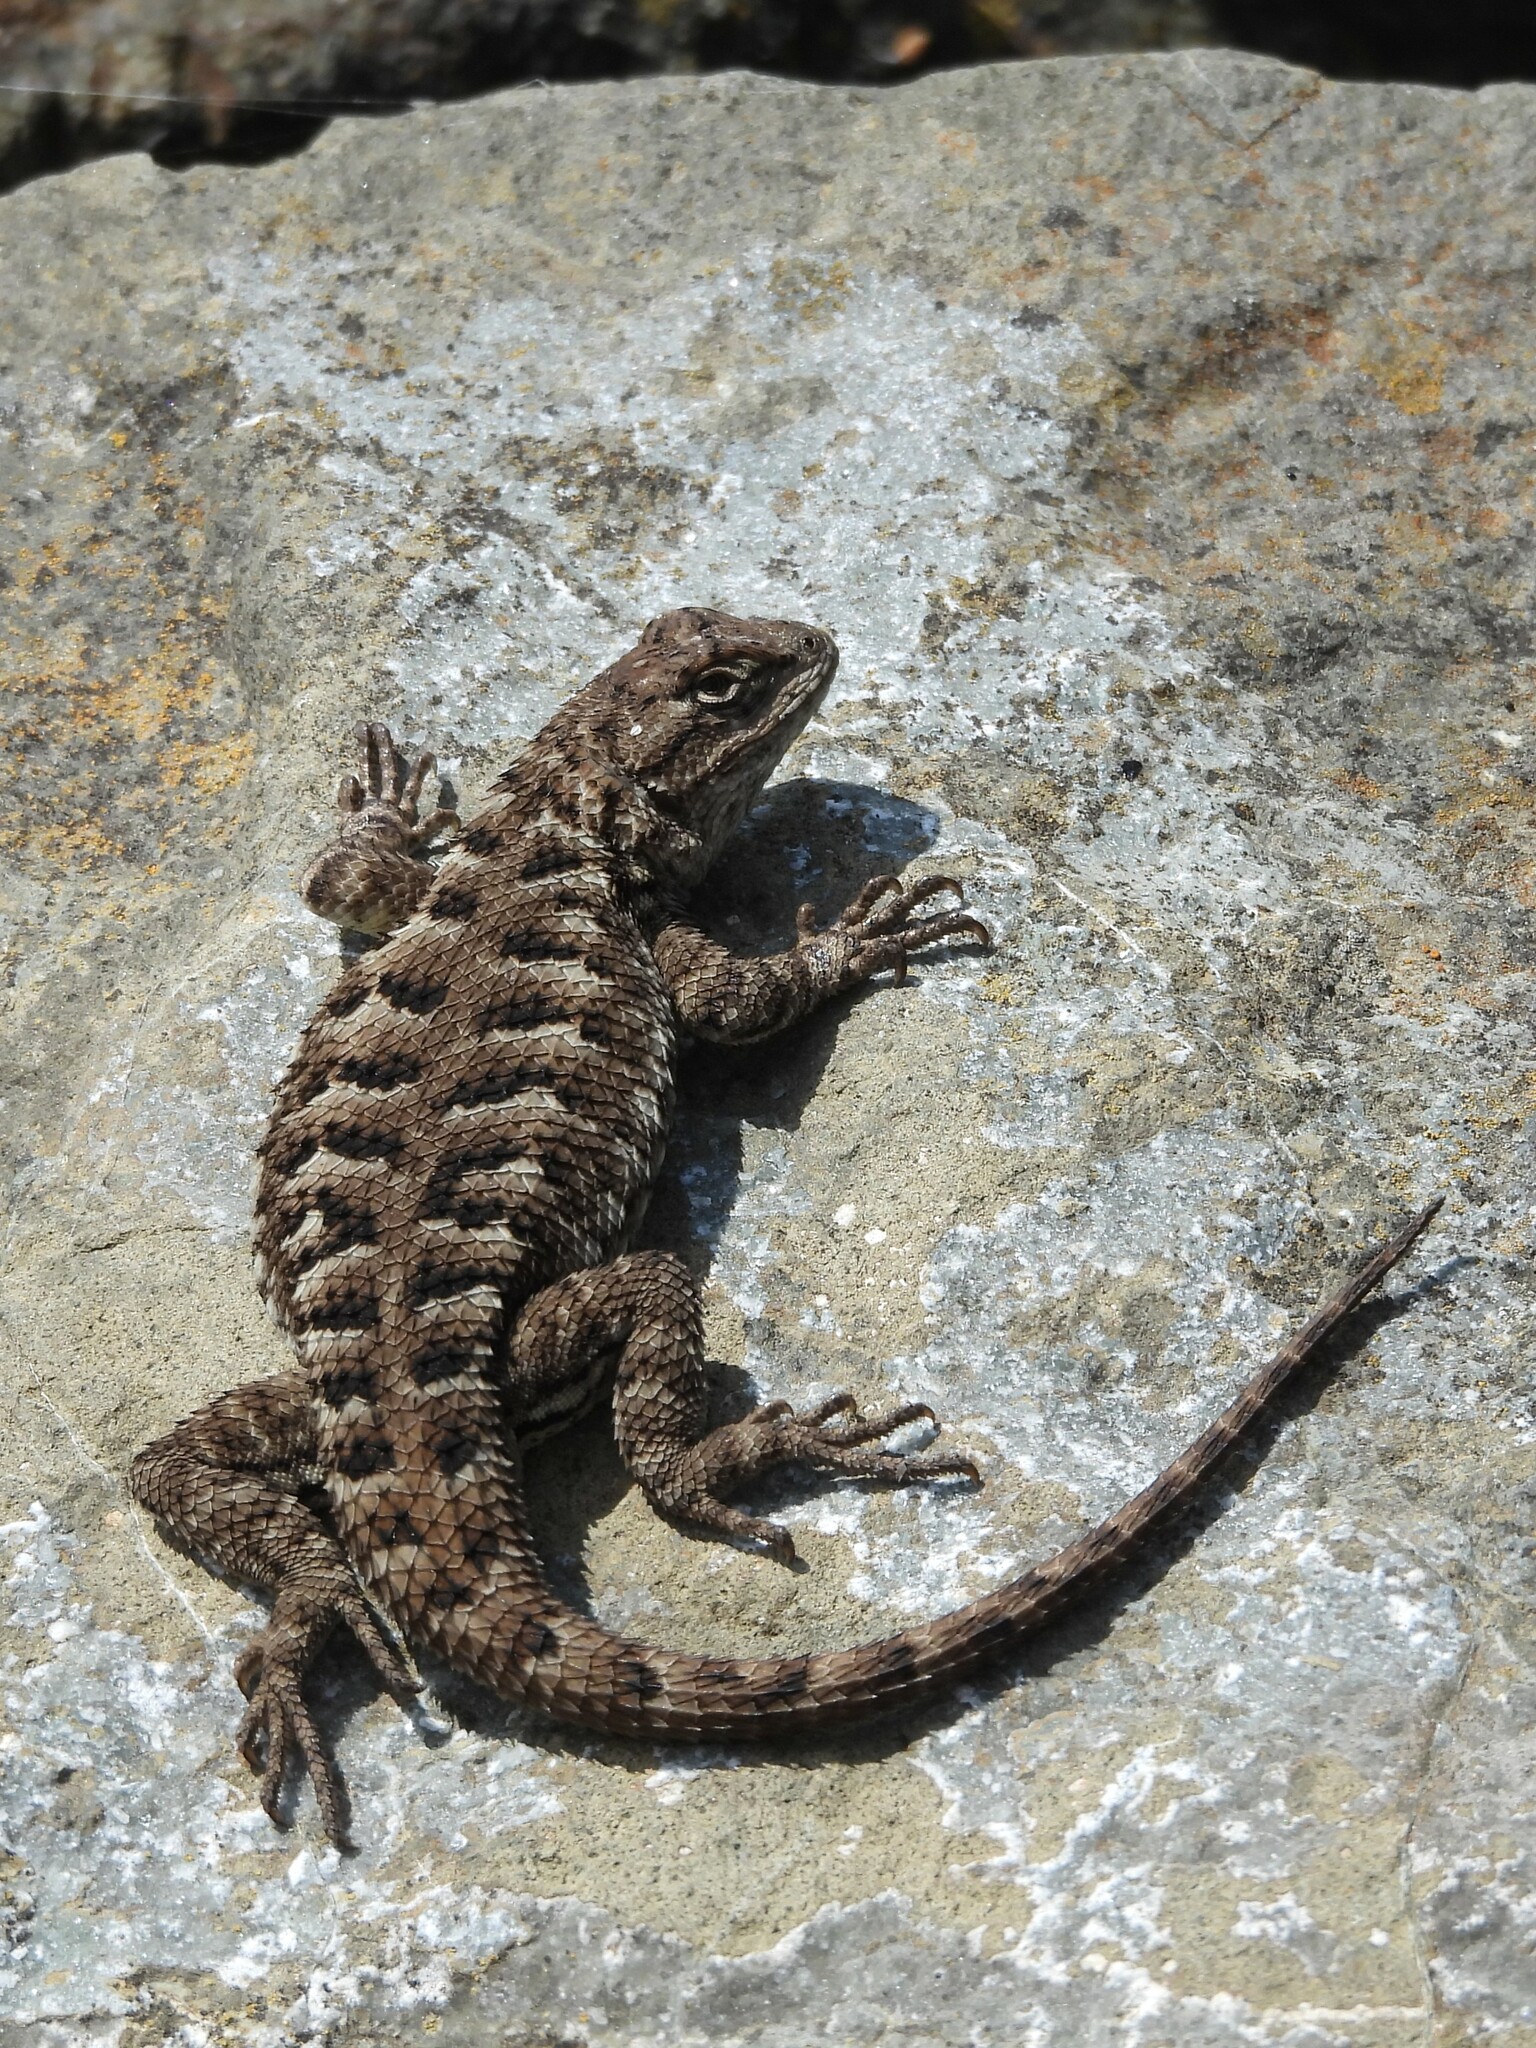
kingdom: Animalia
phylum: Chordata
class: Squamata
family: Phrynosomatidae
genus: Sceloporus
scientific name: Sceloporus occidentalis
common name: Western fence lizard
